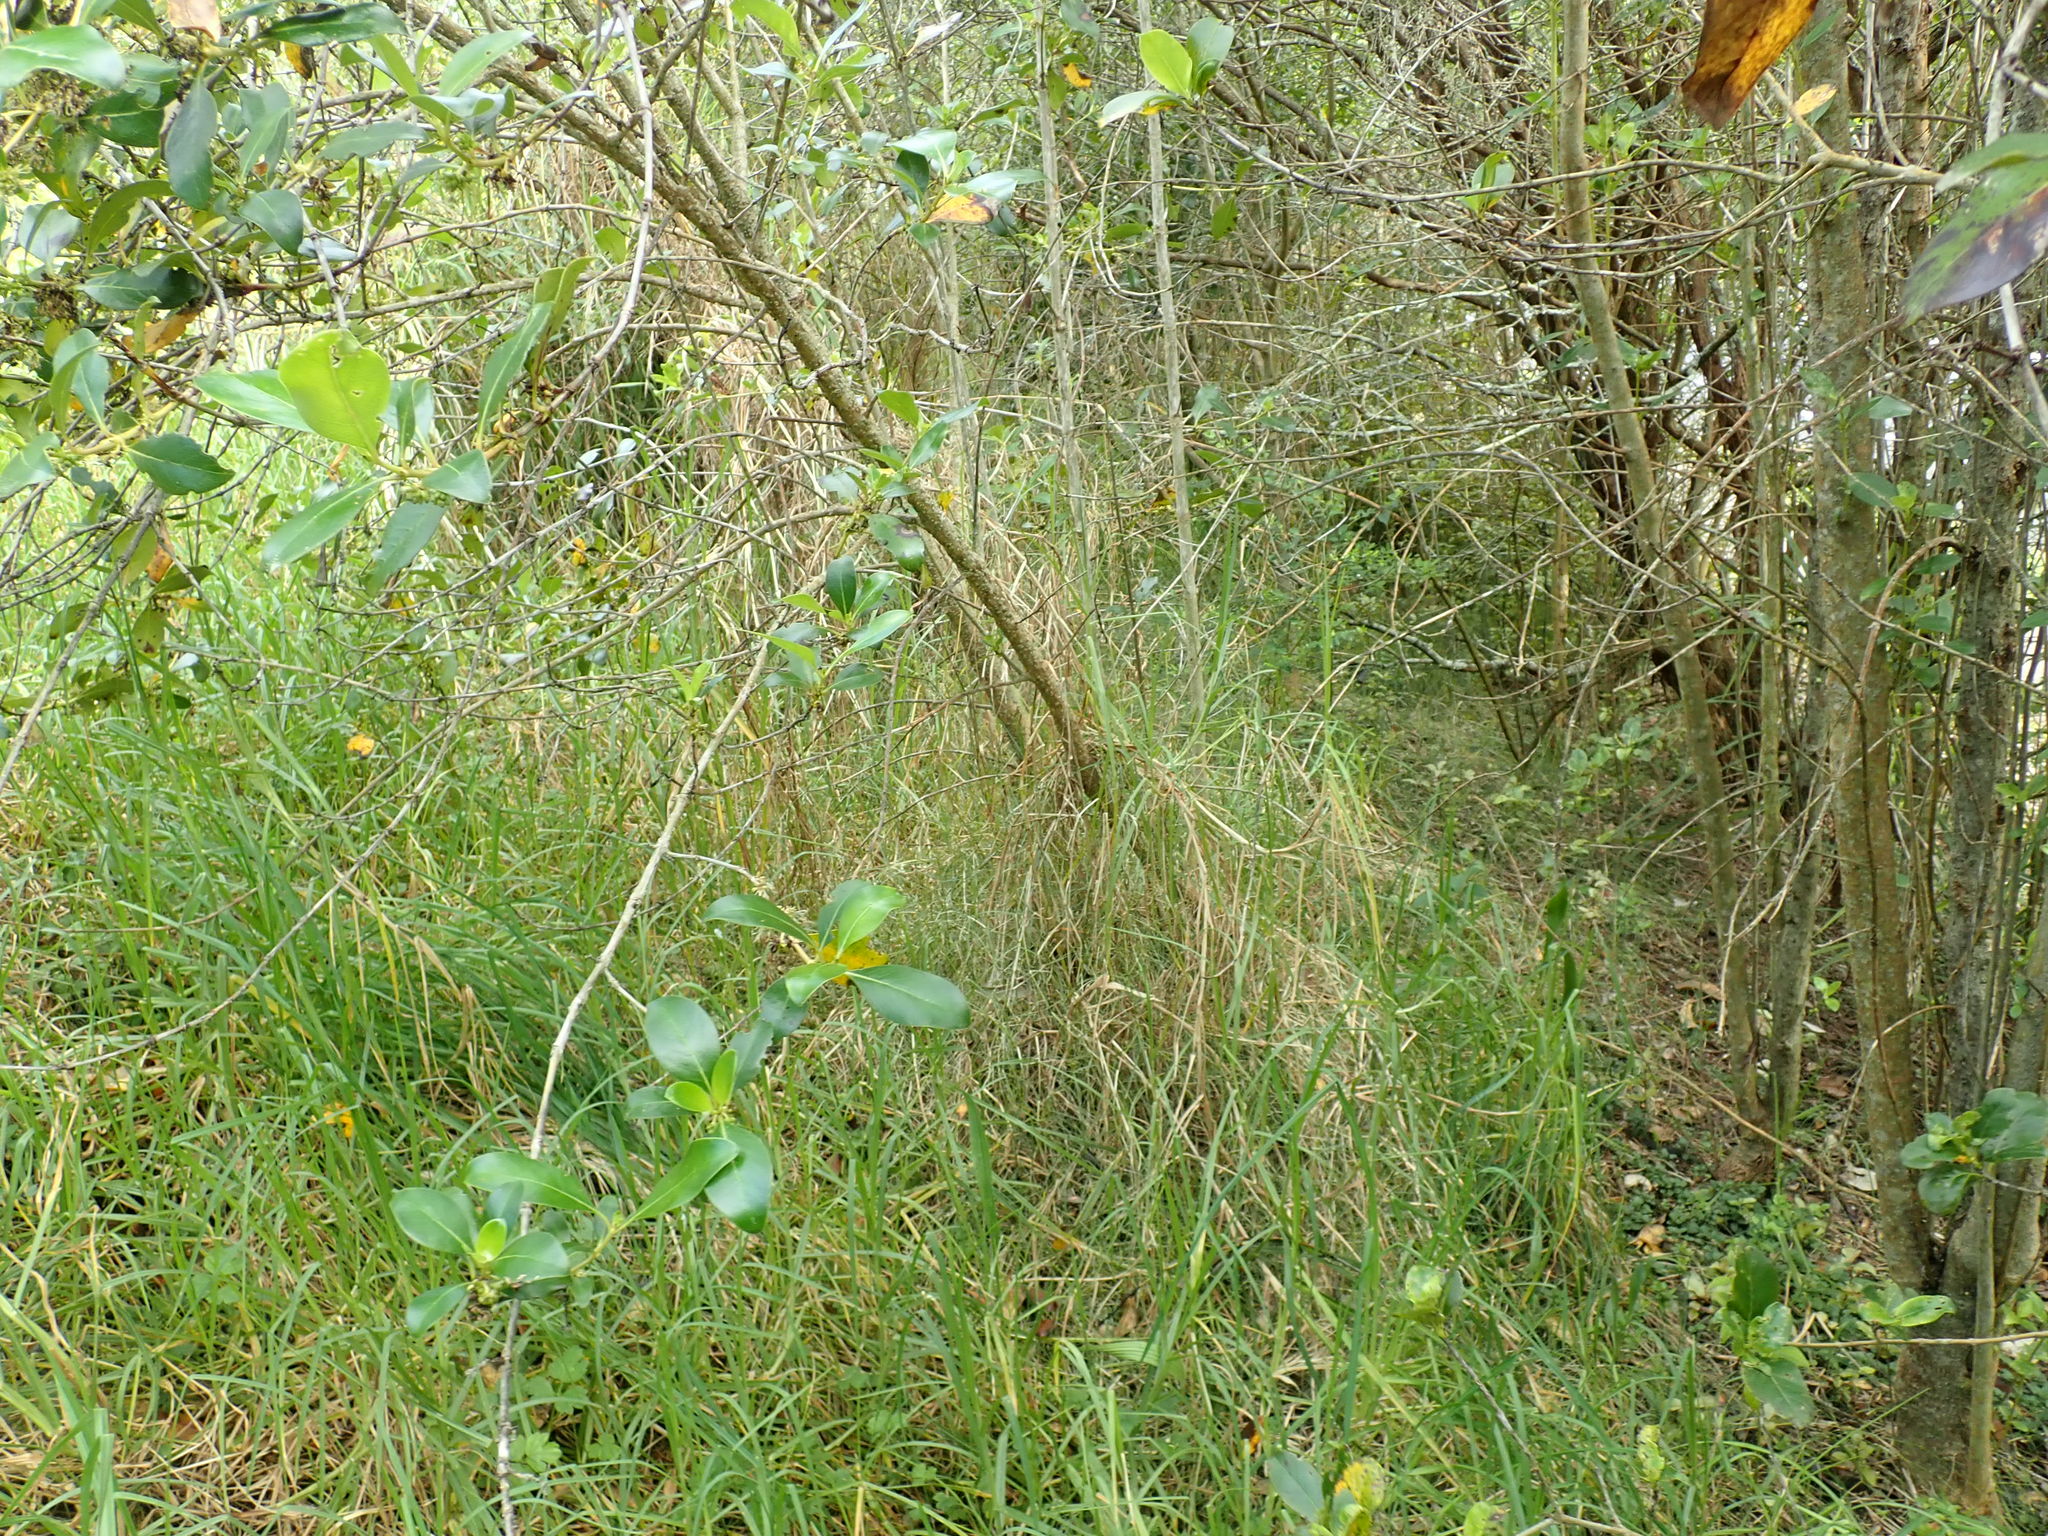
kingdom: Plantae
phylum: Tracheophyta
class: Liliopsida
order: Poales
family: Poaceae
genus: Cenchrus
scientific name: Cenchrus clandestinus
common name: Kikuyugrass
